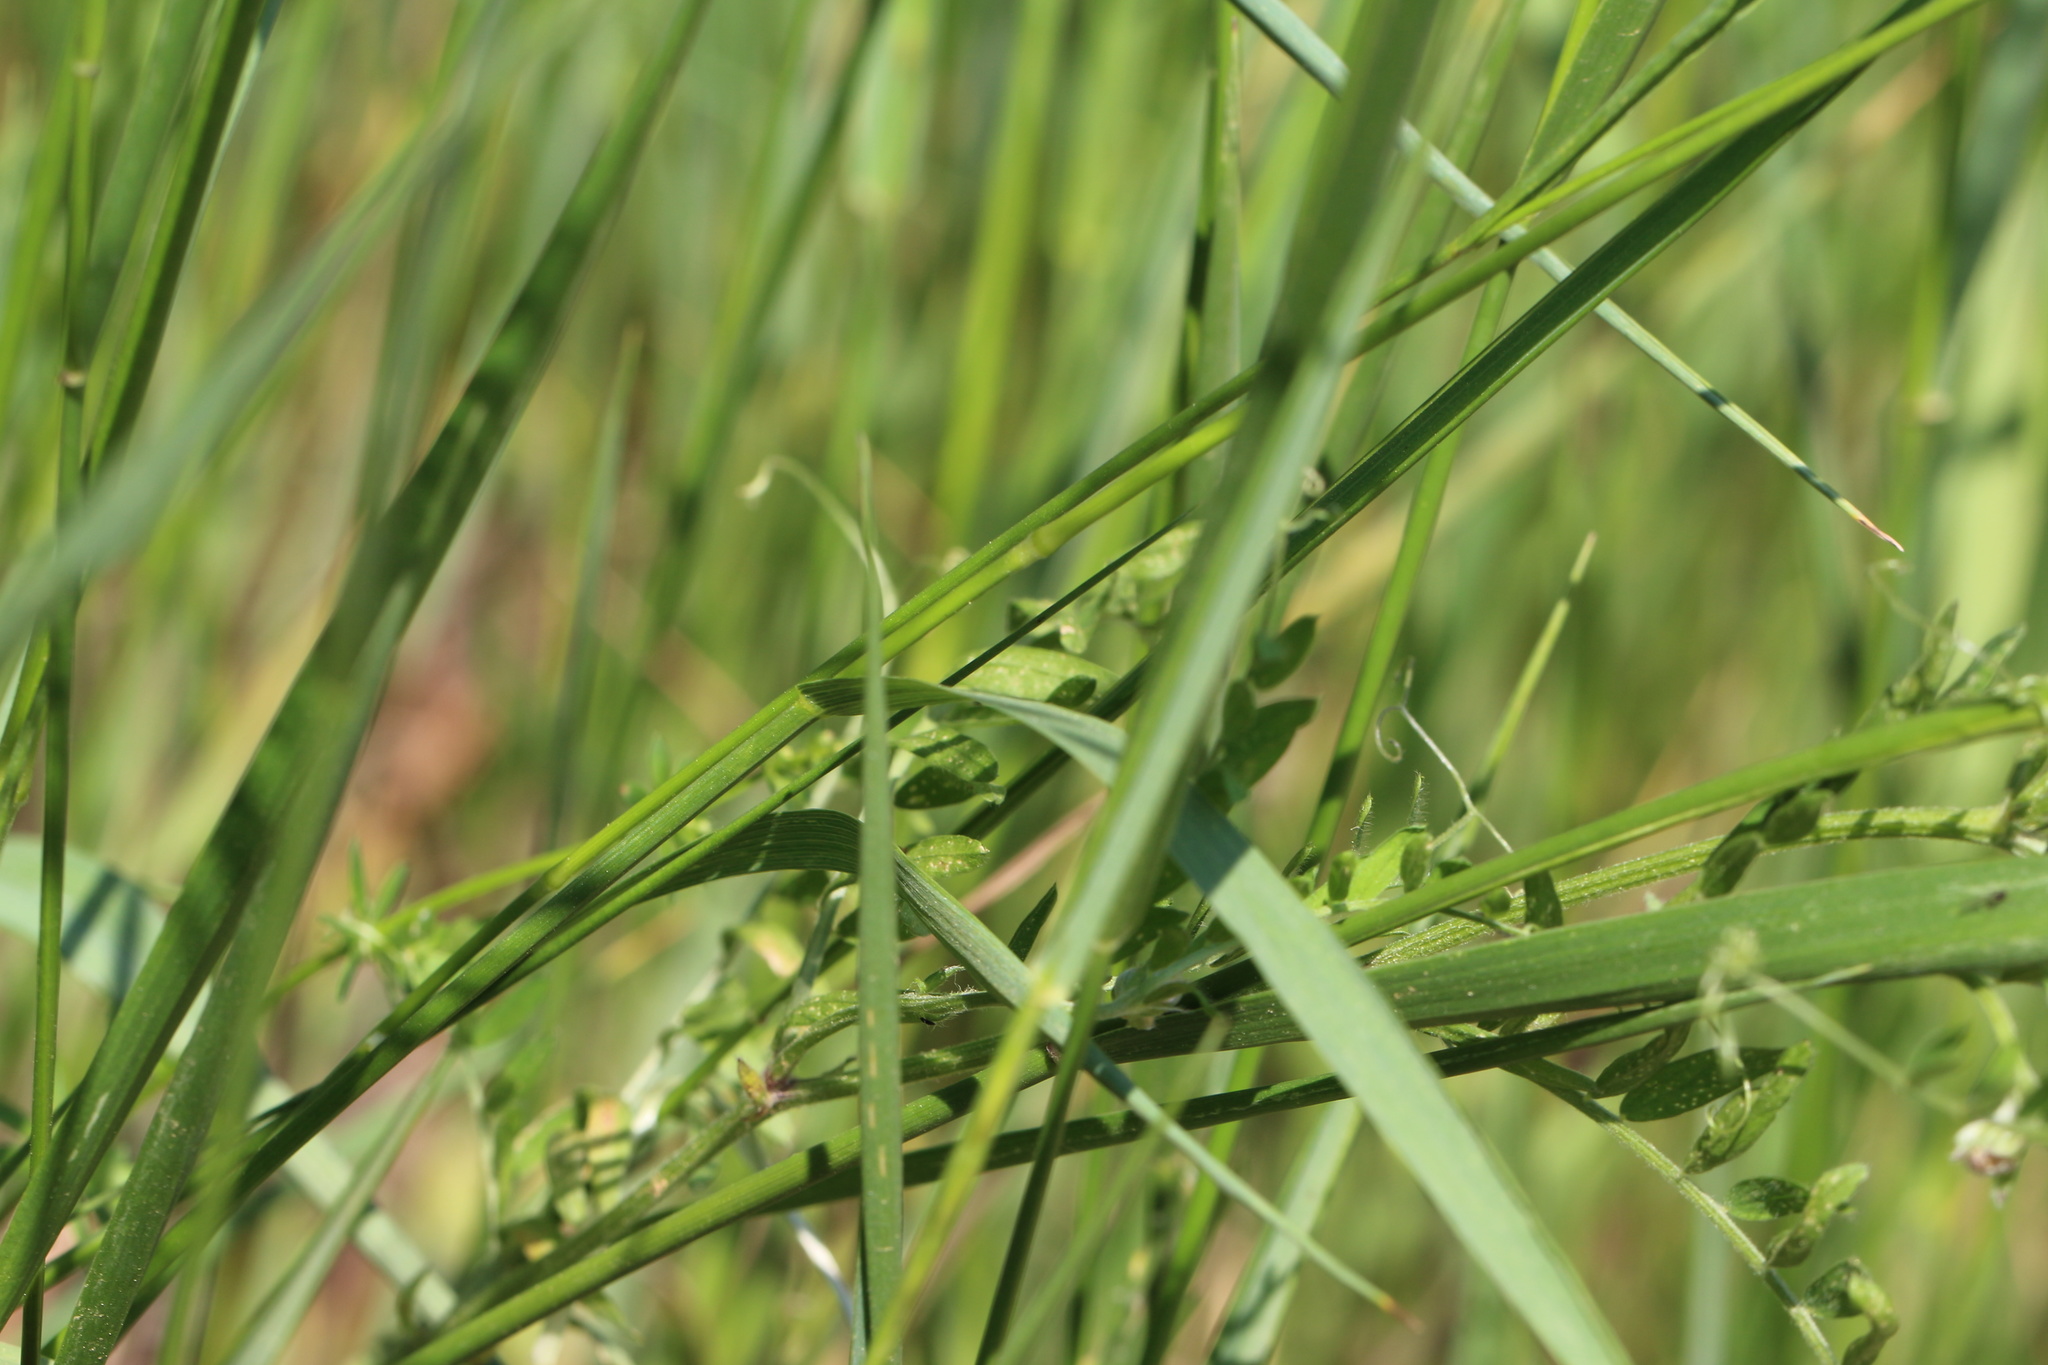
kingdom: Plantae
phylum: Tracheophyta
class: Magnoliopsida
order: Fabales
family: Fabaceae
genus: Vicia
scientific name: Vicia cracca
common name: Bird vetch
